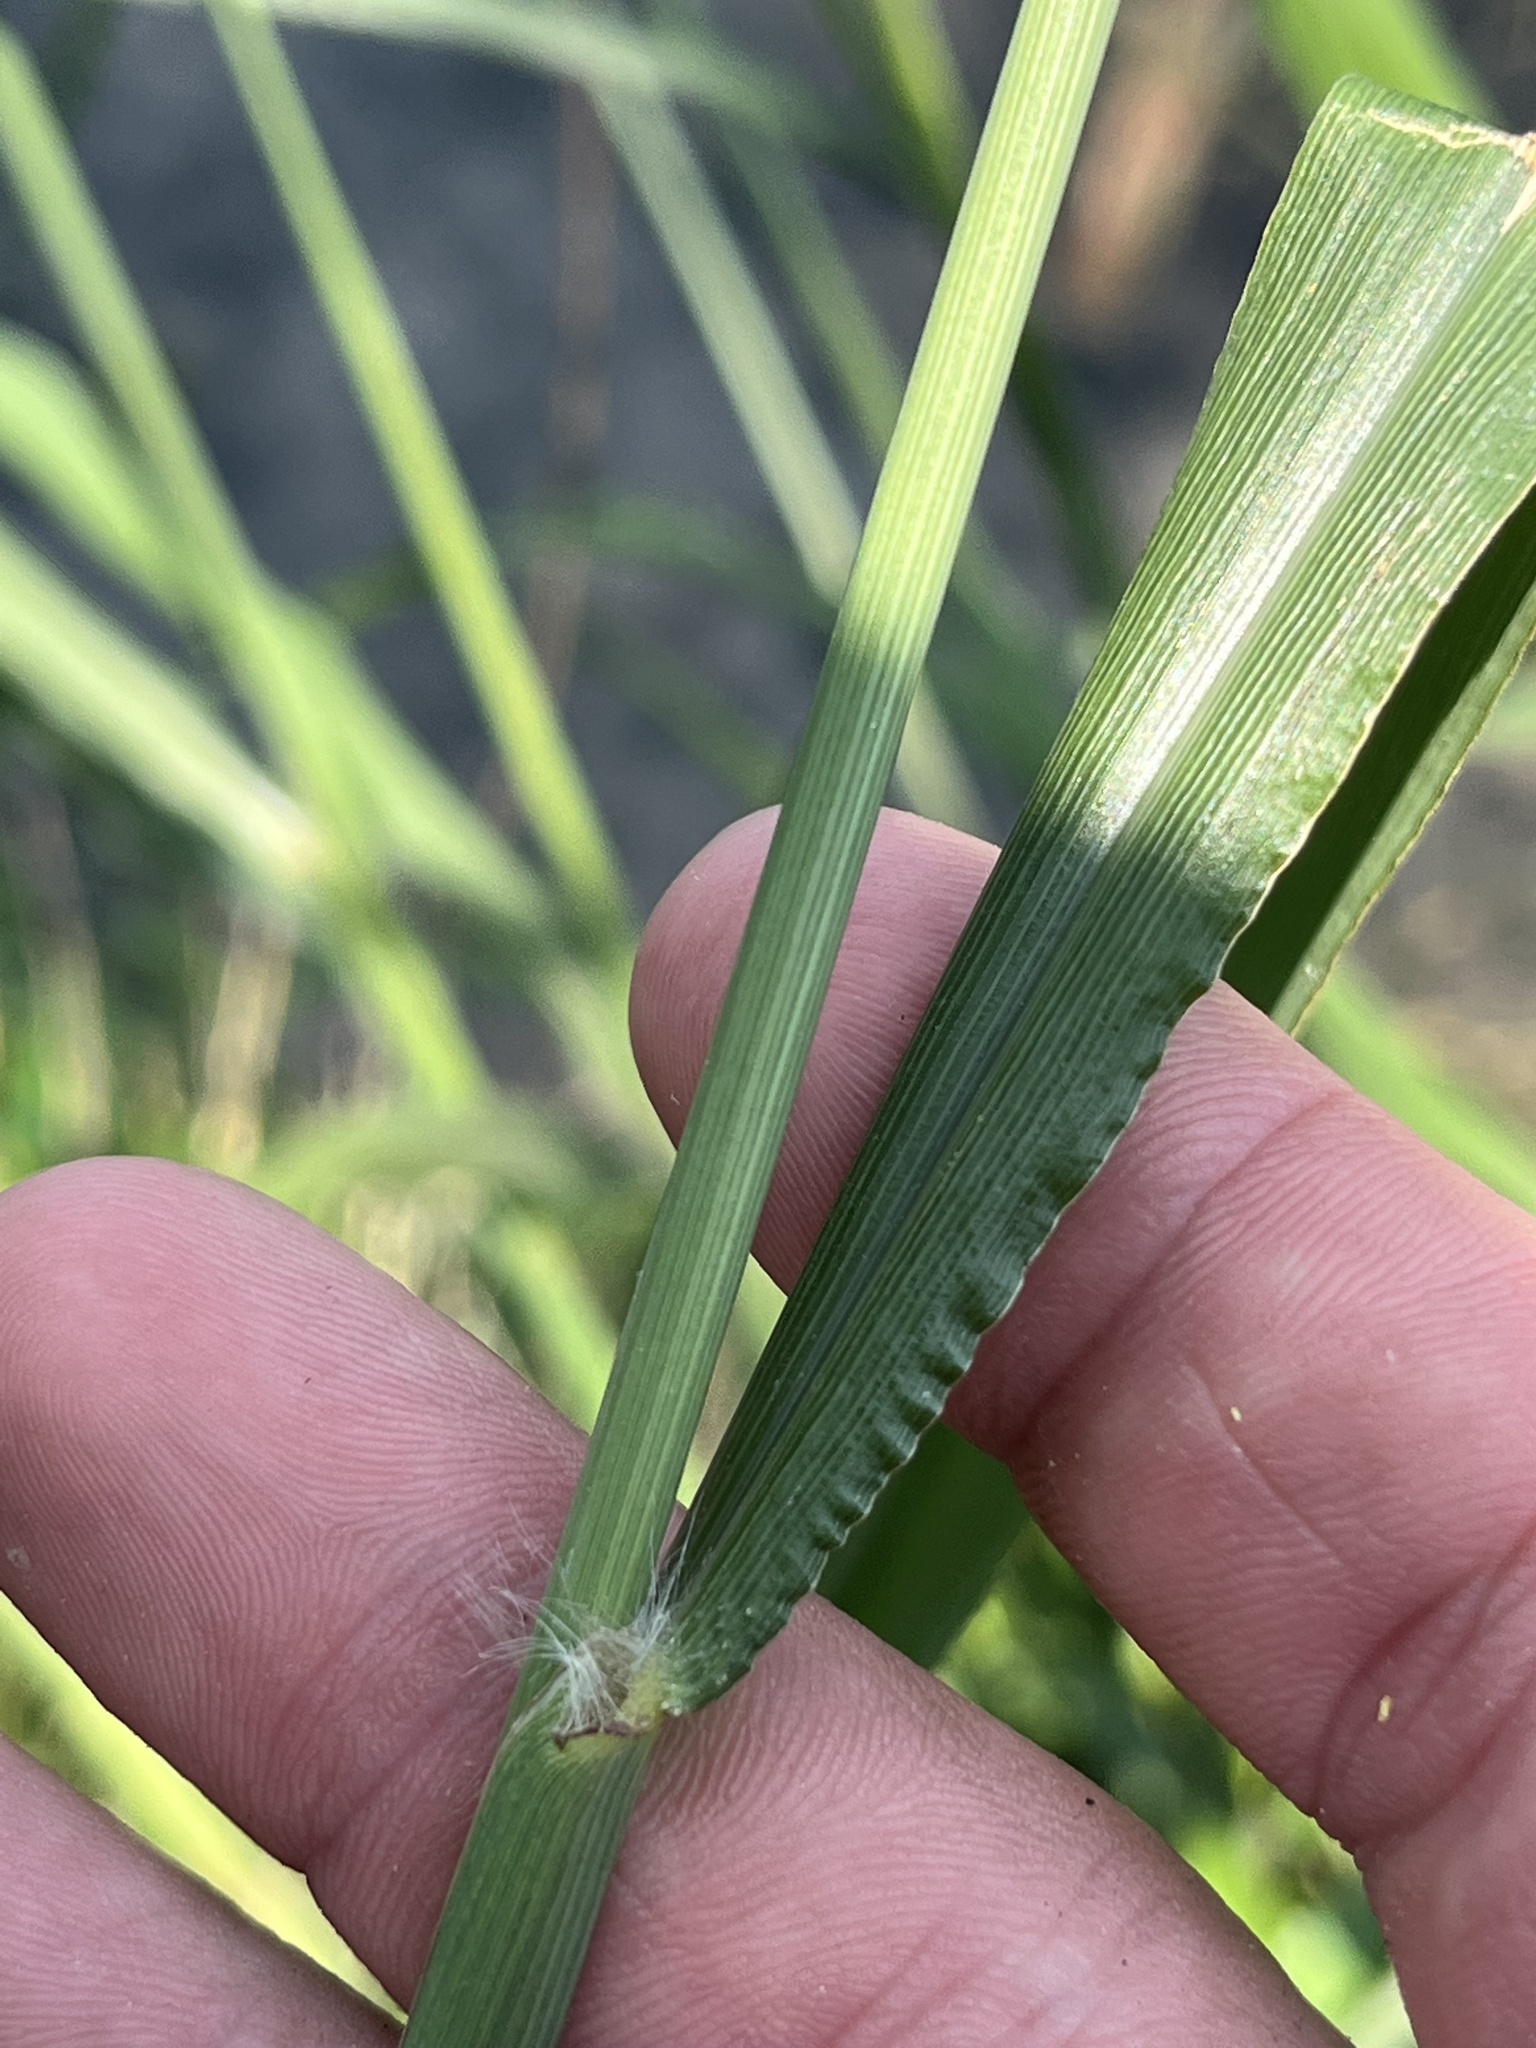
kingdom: Plantae
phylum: Tracheophyta
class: Liliopsida
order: Poales
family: Poaceae
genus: Paspalum
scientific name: Paspalum urvillei
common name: Vasey's grass
